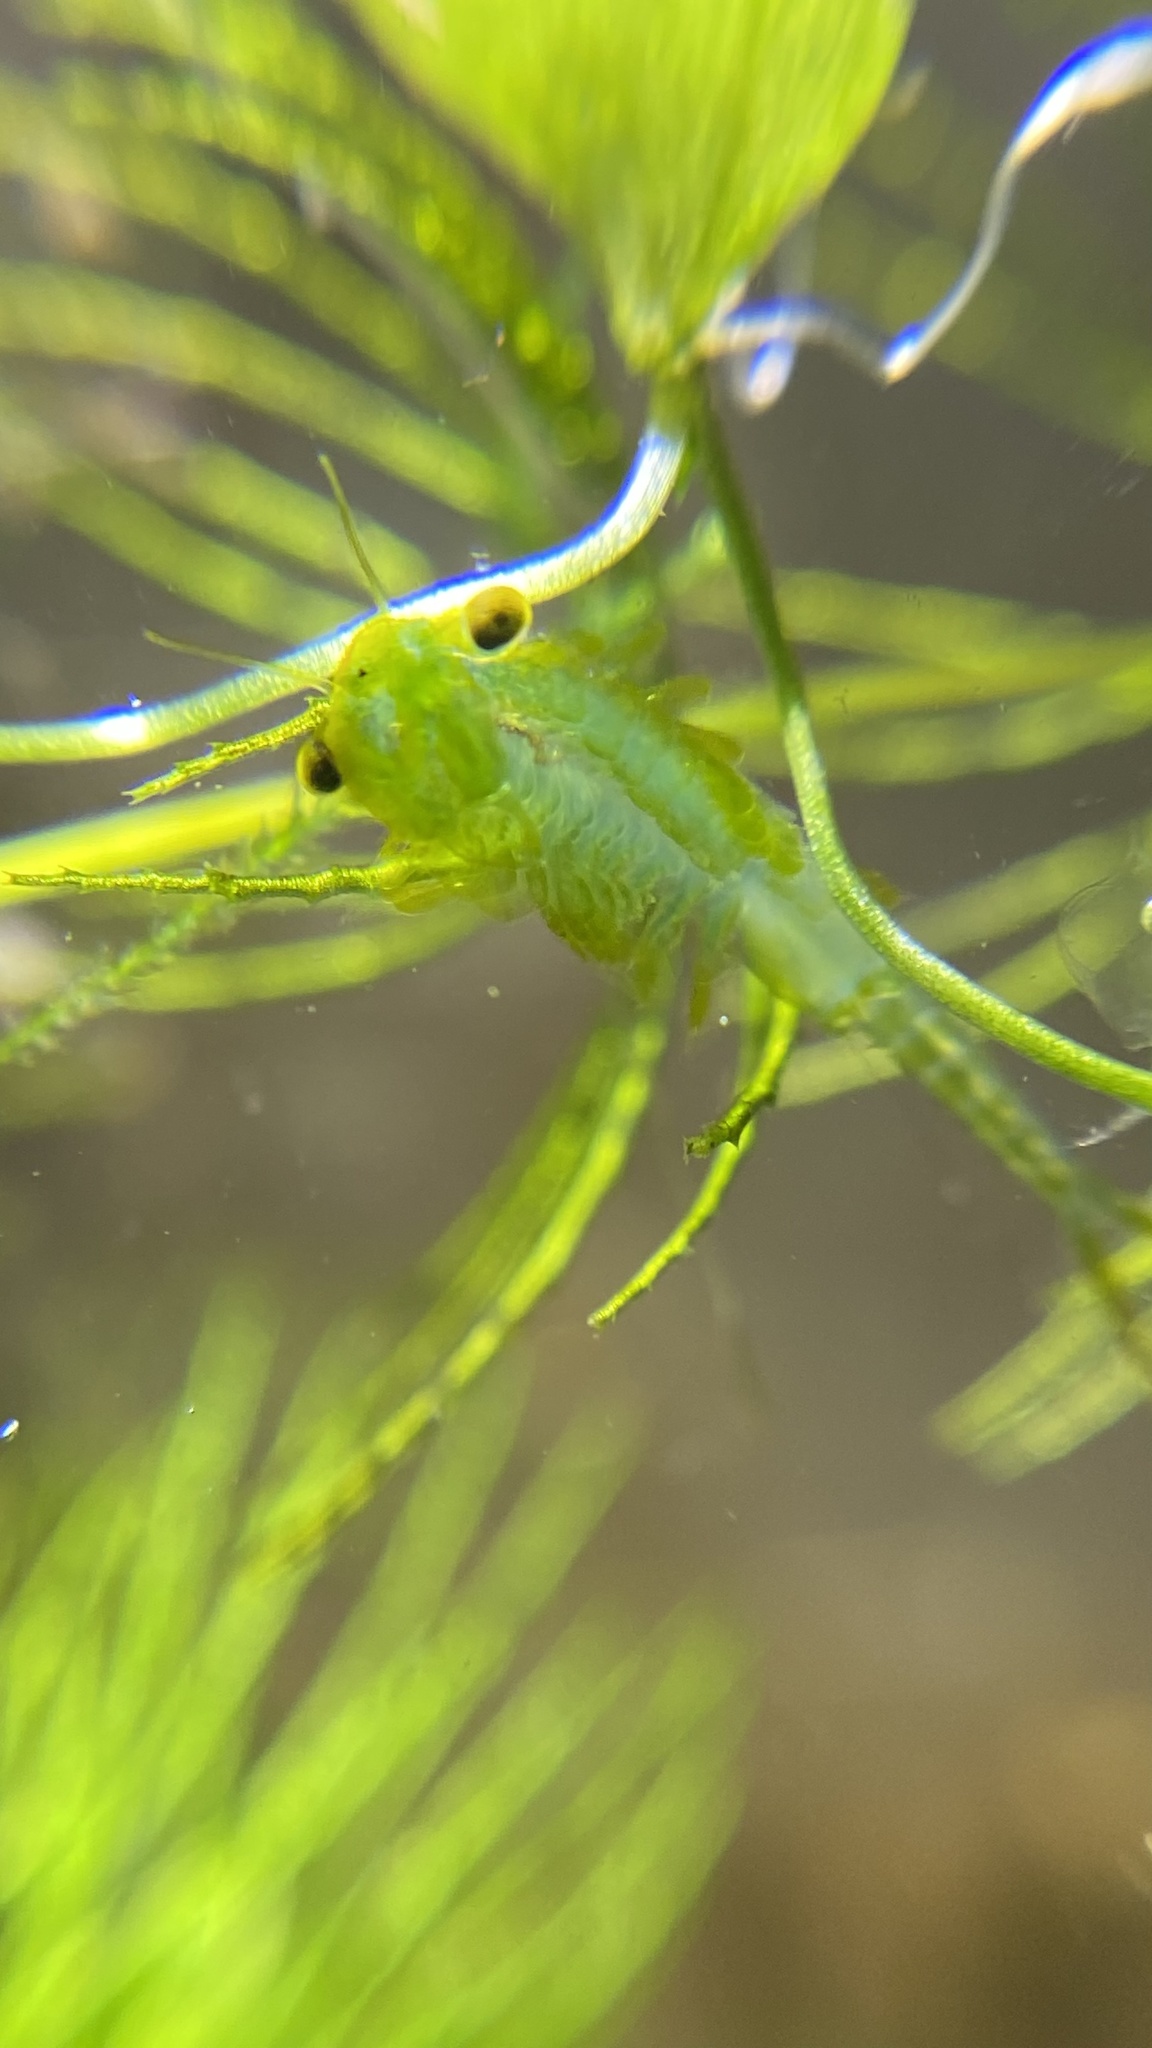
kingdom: Animalia
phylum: Arthropoda
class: Branchiopoda
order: Anostraca
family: Chirocephalidae
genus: Chirocephalus
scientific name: Chirocephalus shadini
